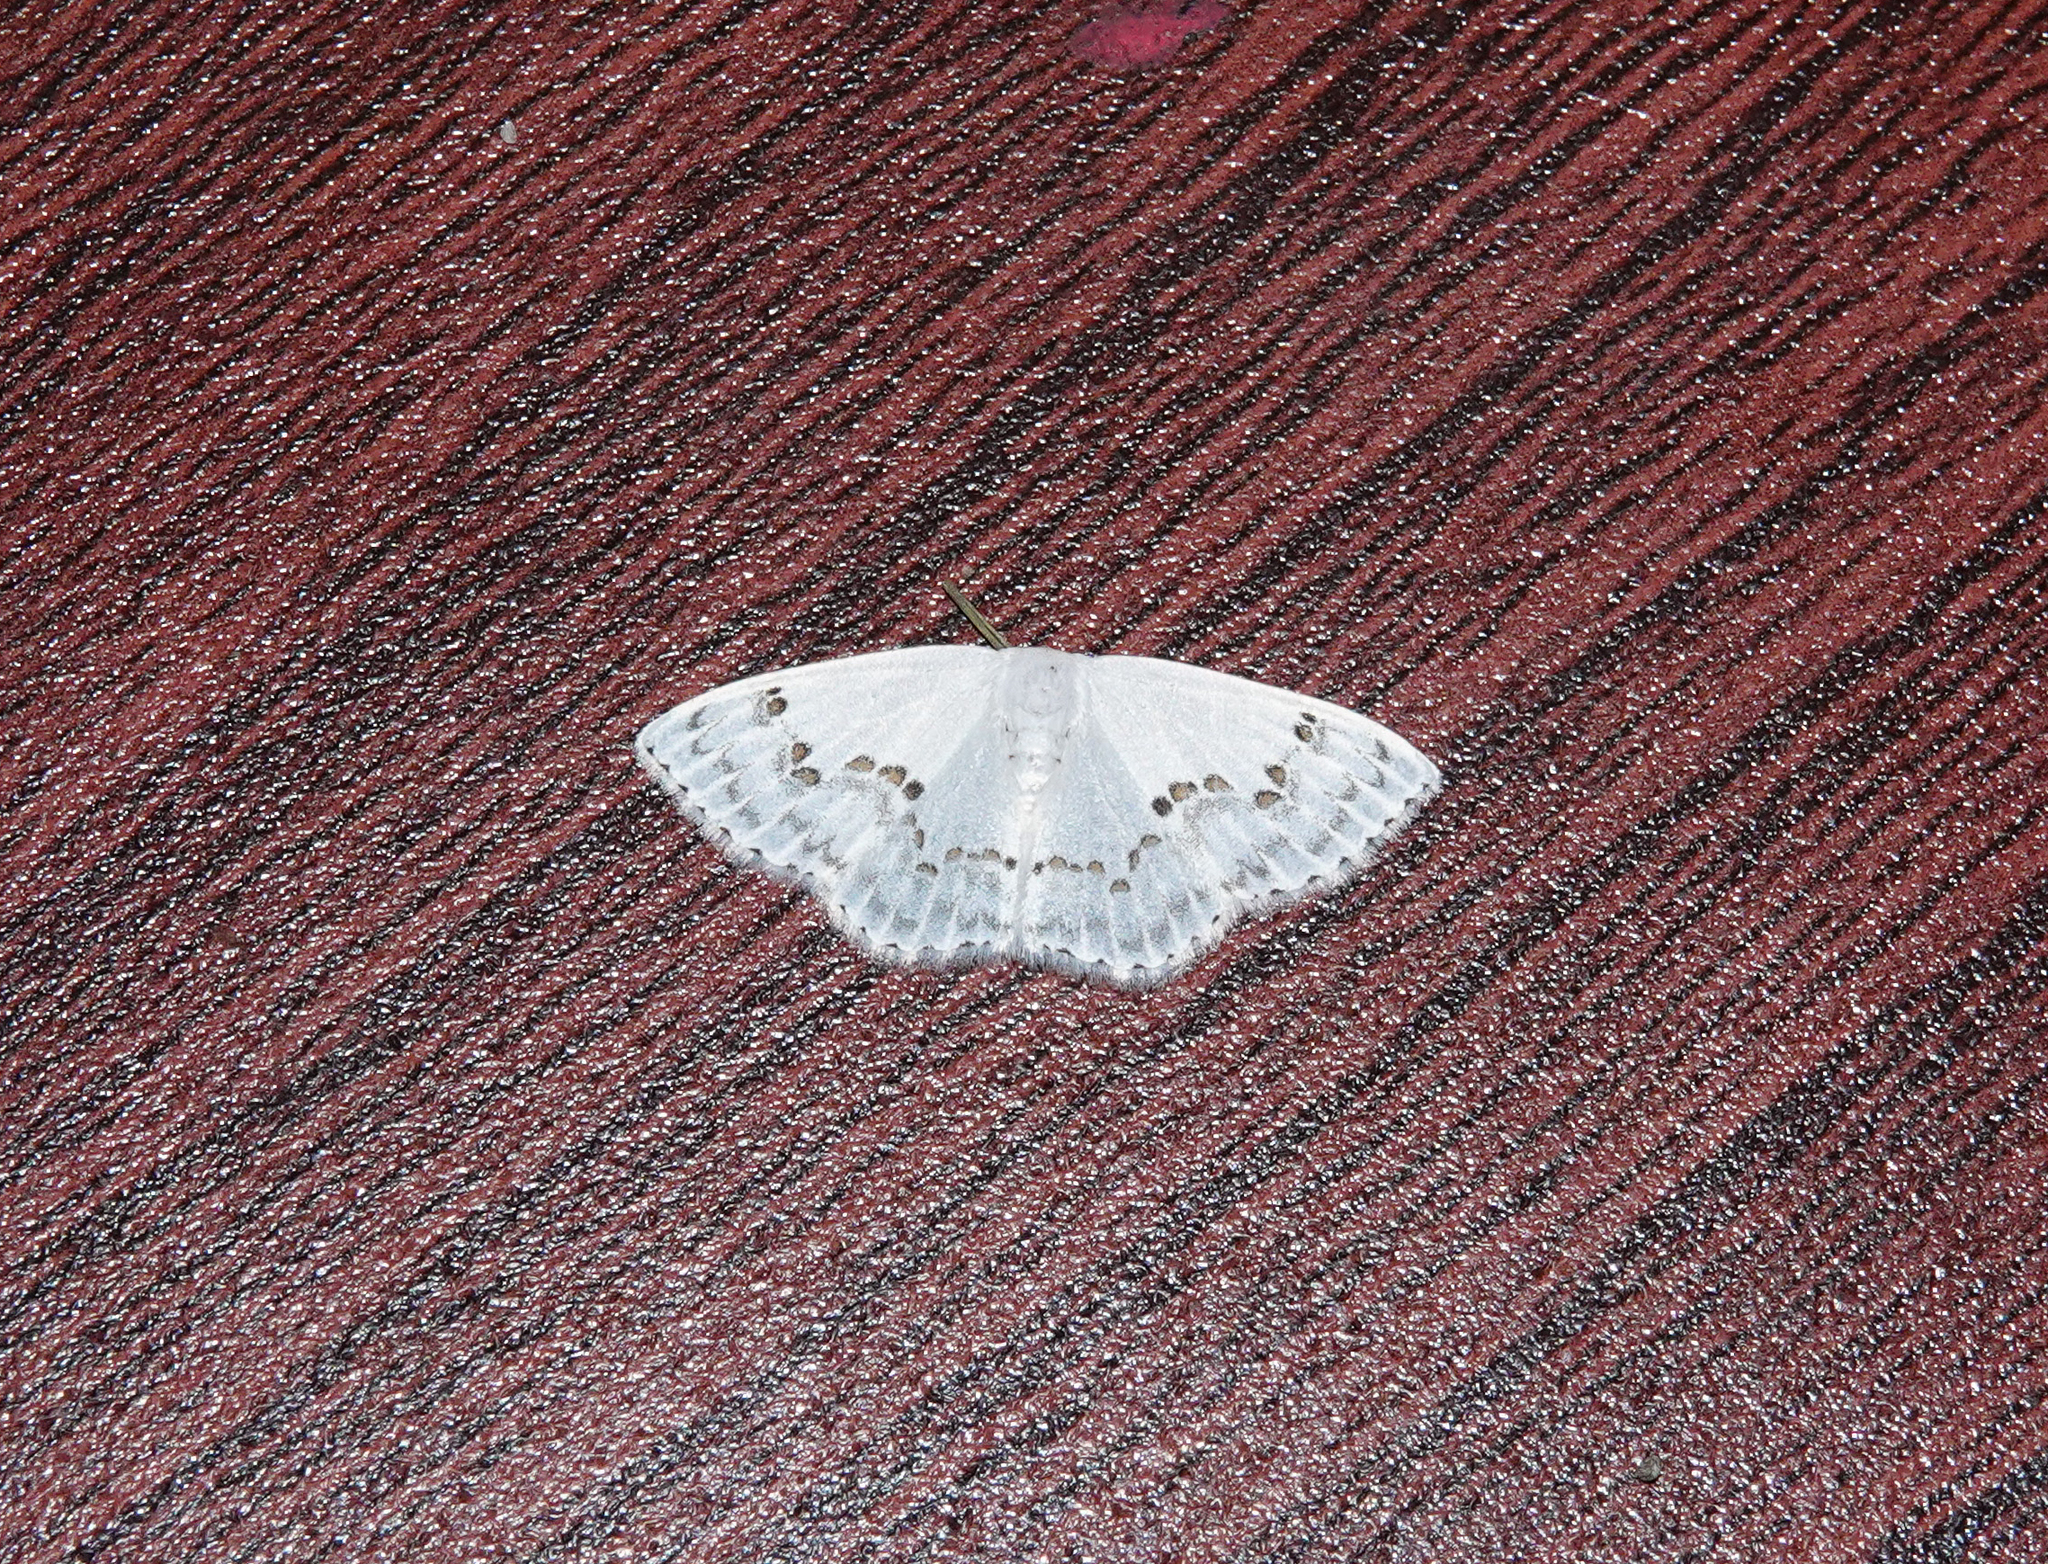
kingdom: Animalia
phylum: Arthropoda
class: Insecta
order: Lepidoptera
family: Drepanidae
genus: Teldenia
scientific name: Teldenia specca
